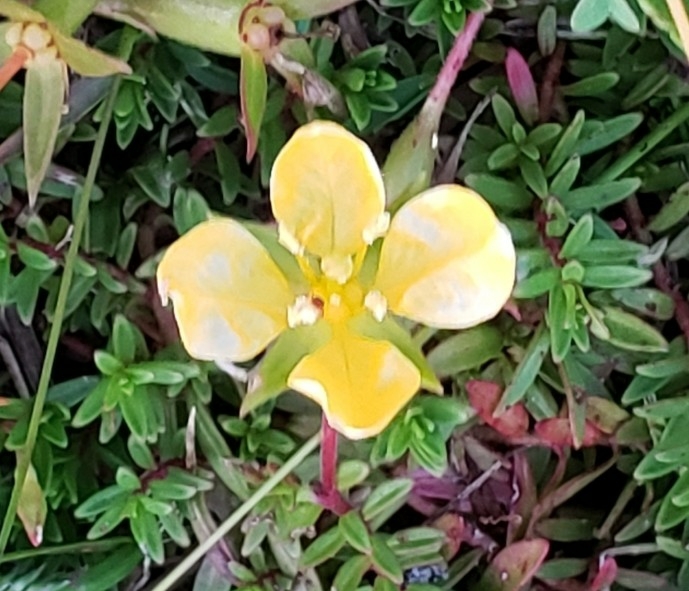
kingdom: Plantae
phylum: Tracheophyta
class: Magnoliopsida
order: Myrtales
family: Onagraceae
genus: Ludwigia
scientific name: Ludwigia arcuata
